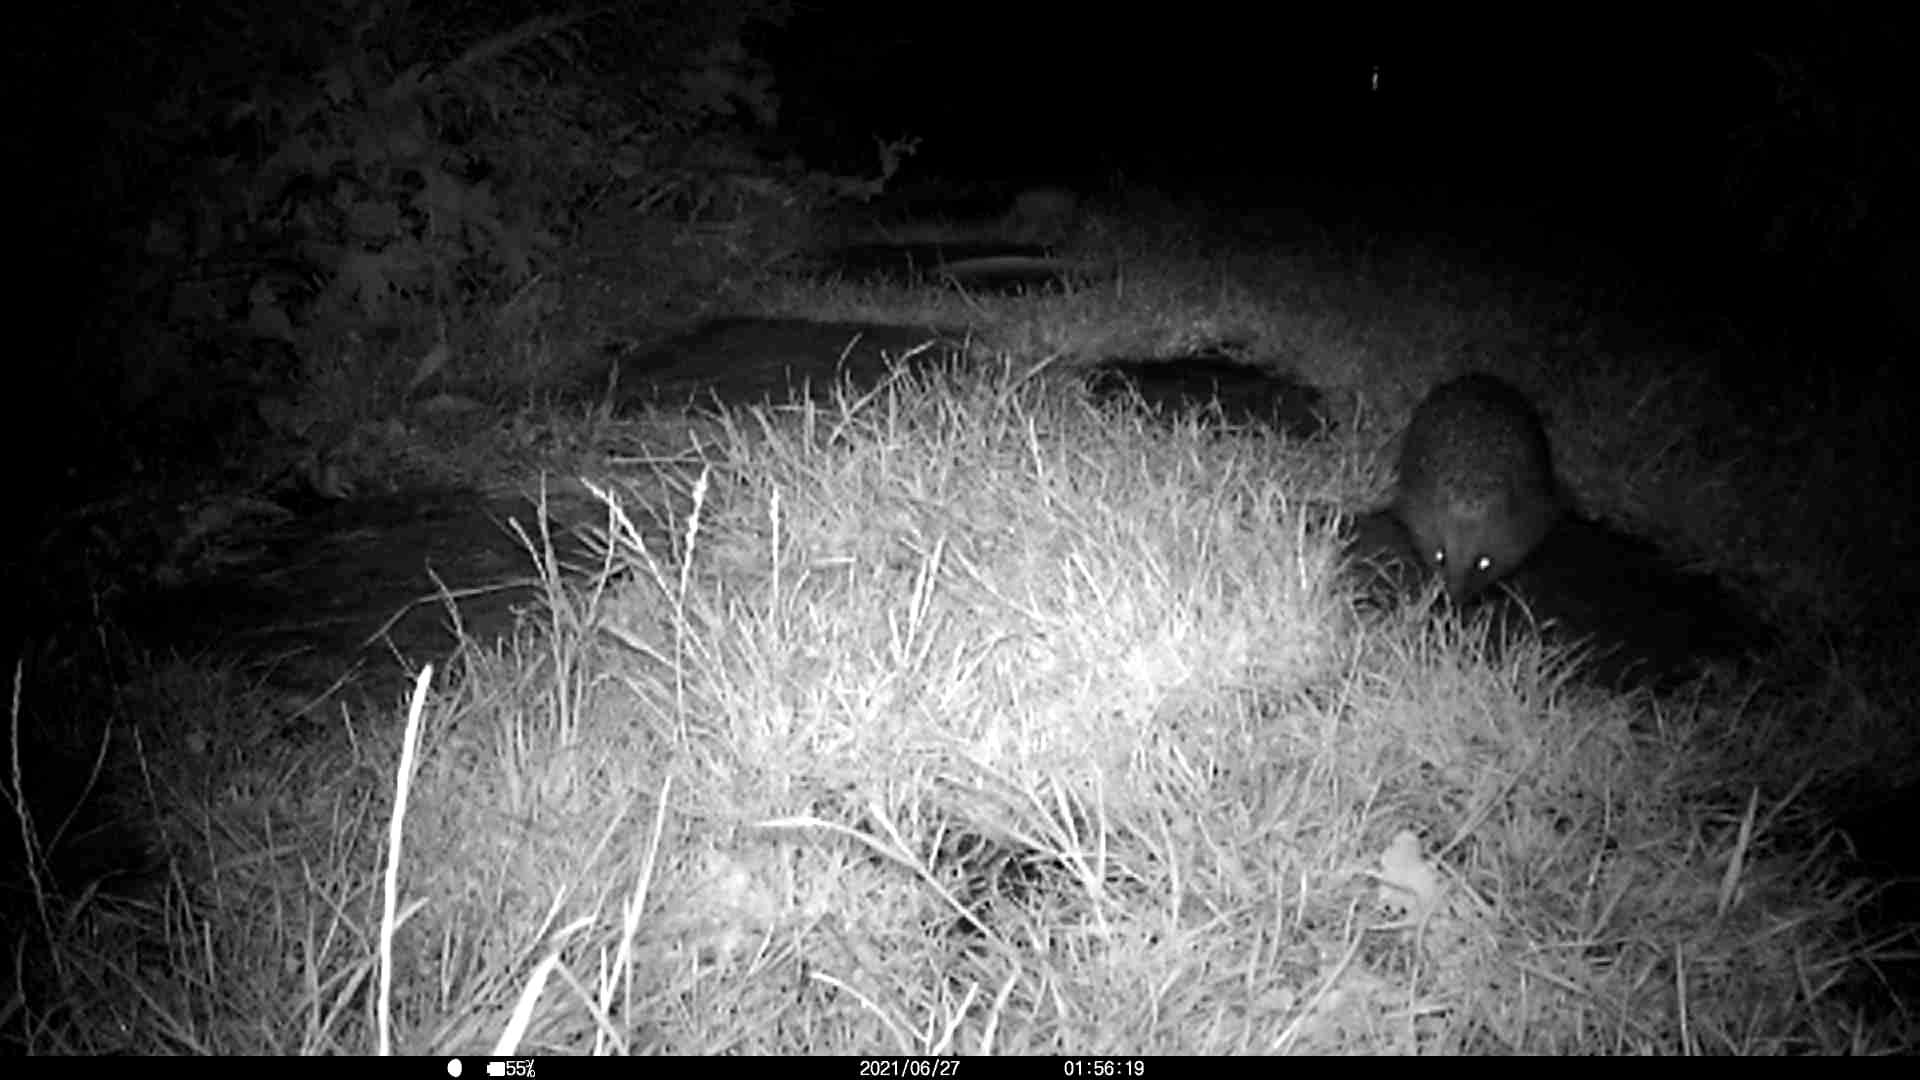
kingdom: Animalia
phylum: Chordata
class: Mammalia
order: Erinaceomorpha
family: Erinaceidae
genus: Erinaceus
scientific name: Erinaceus europaeus
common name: West european hedgehog
